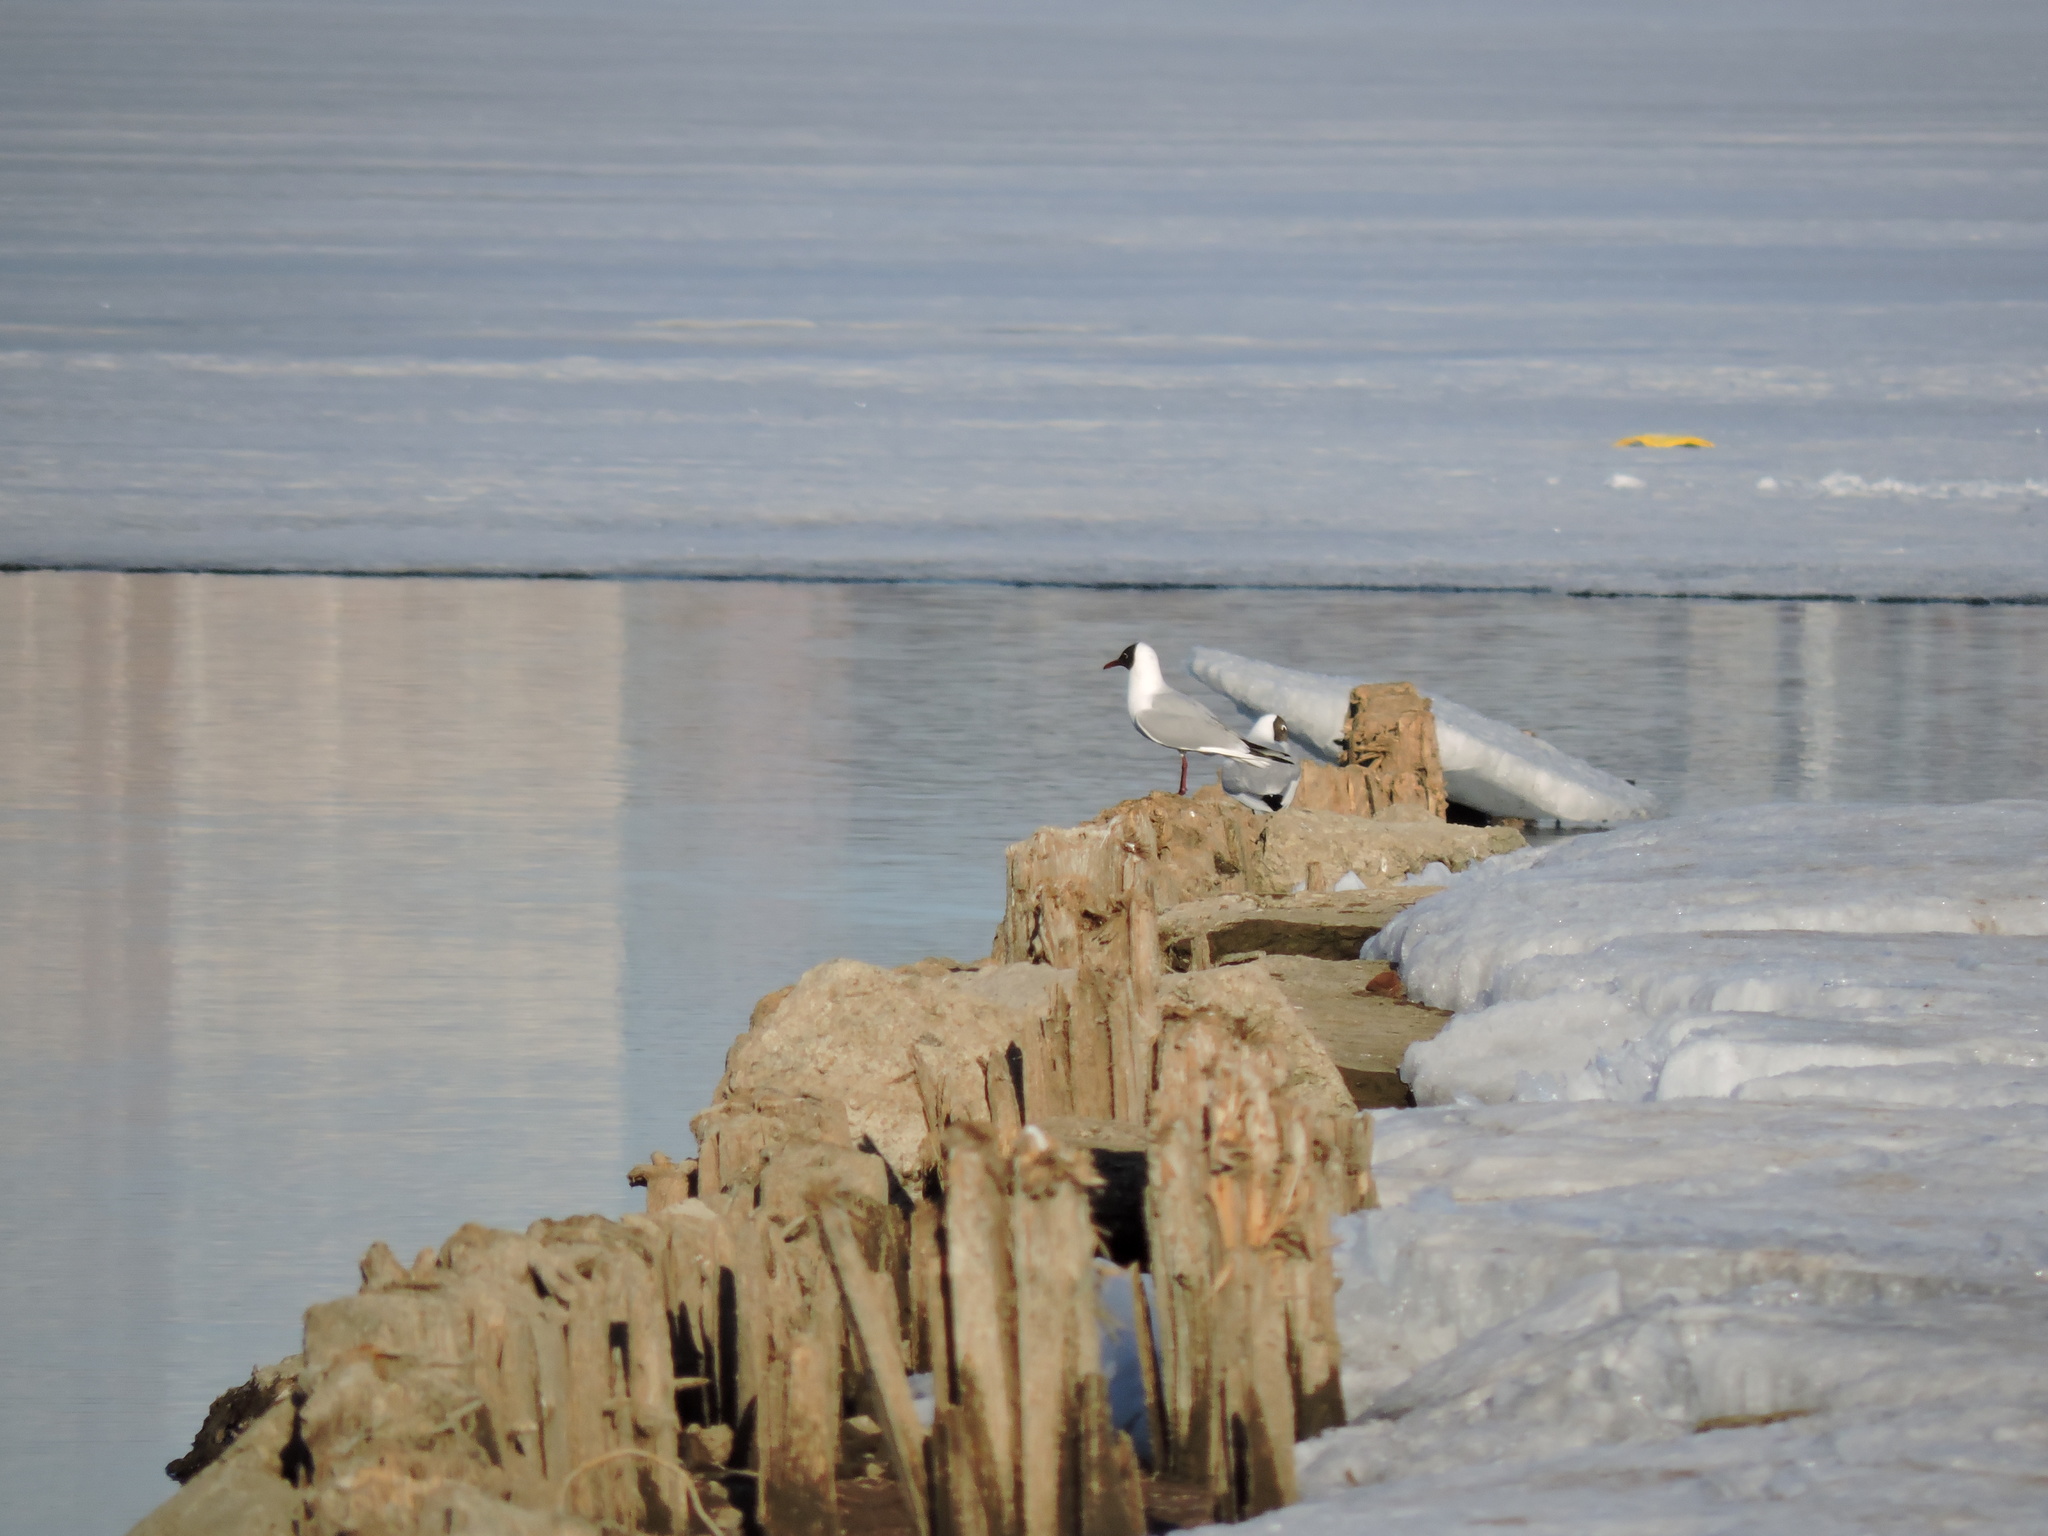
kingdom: Animalia
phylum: Chordata
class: Aves
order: Charadriiformes
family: Laridae
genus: Chroicocephalus
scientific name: Chroicocephalus ridibundus
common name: Black-headed gull
